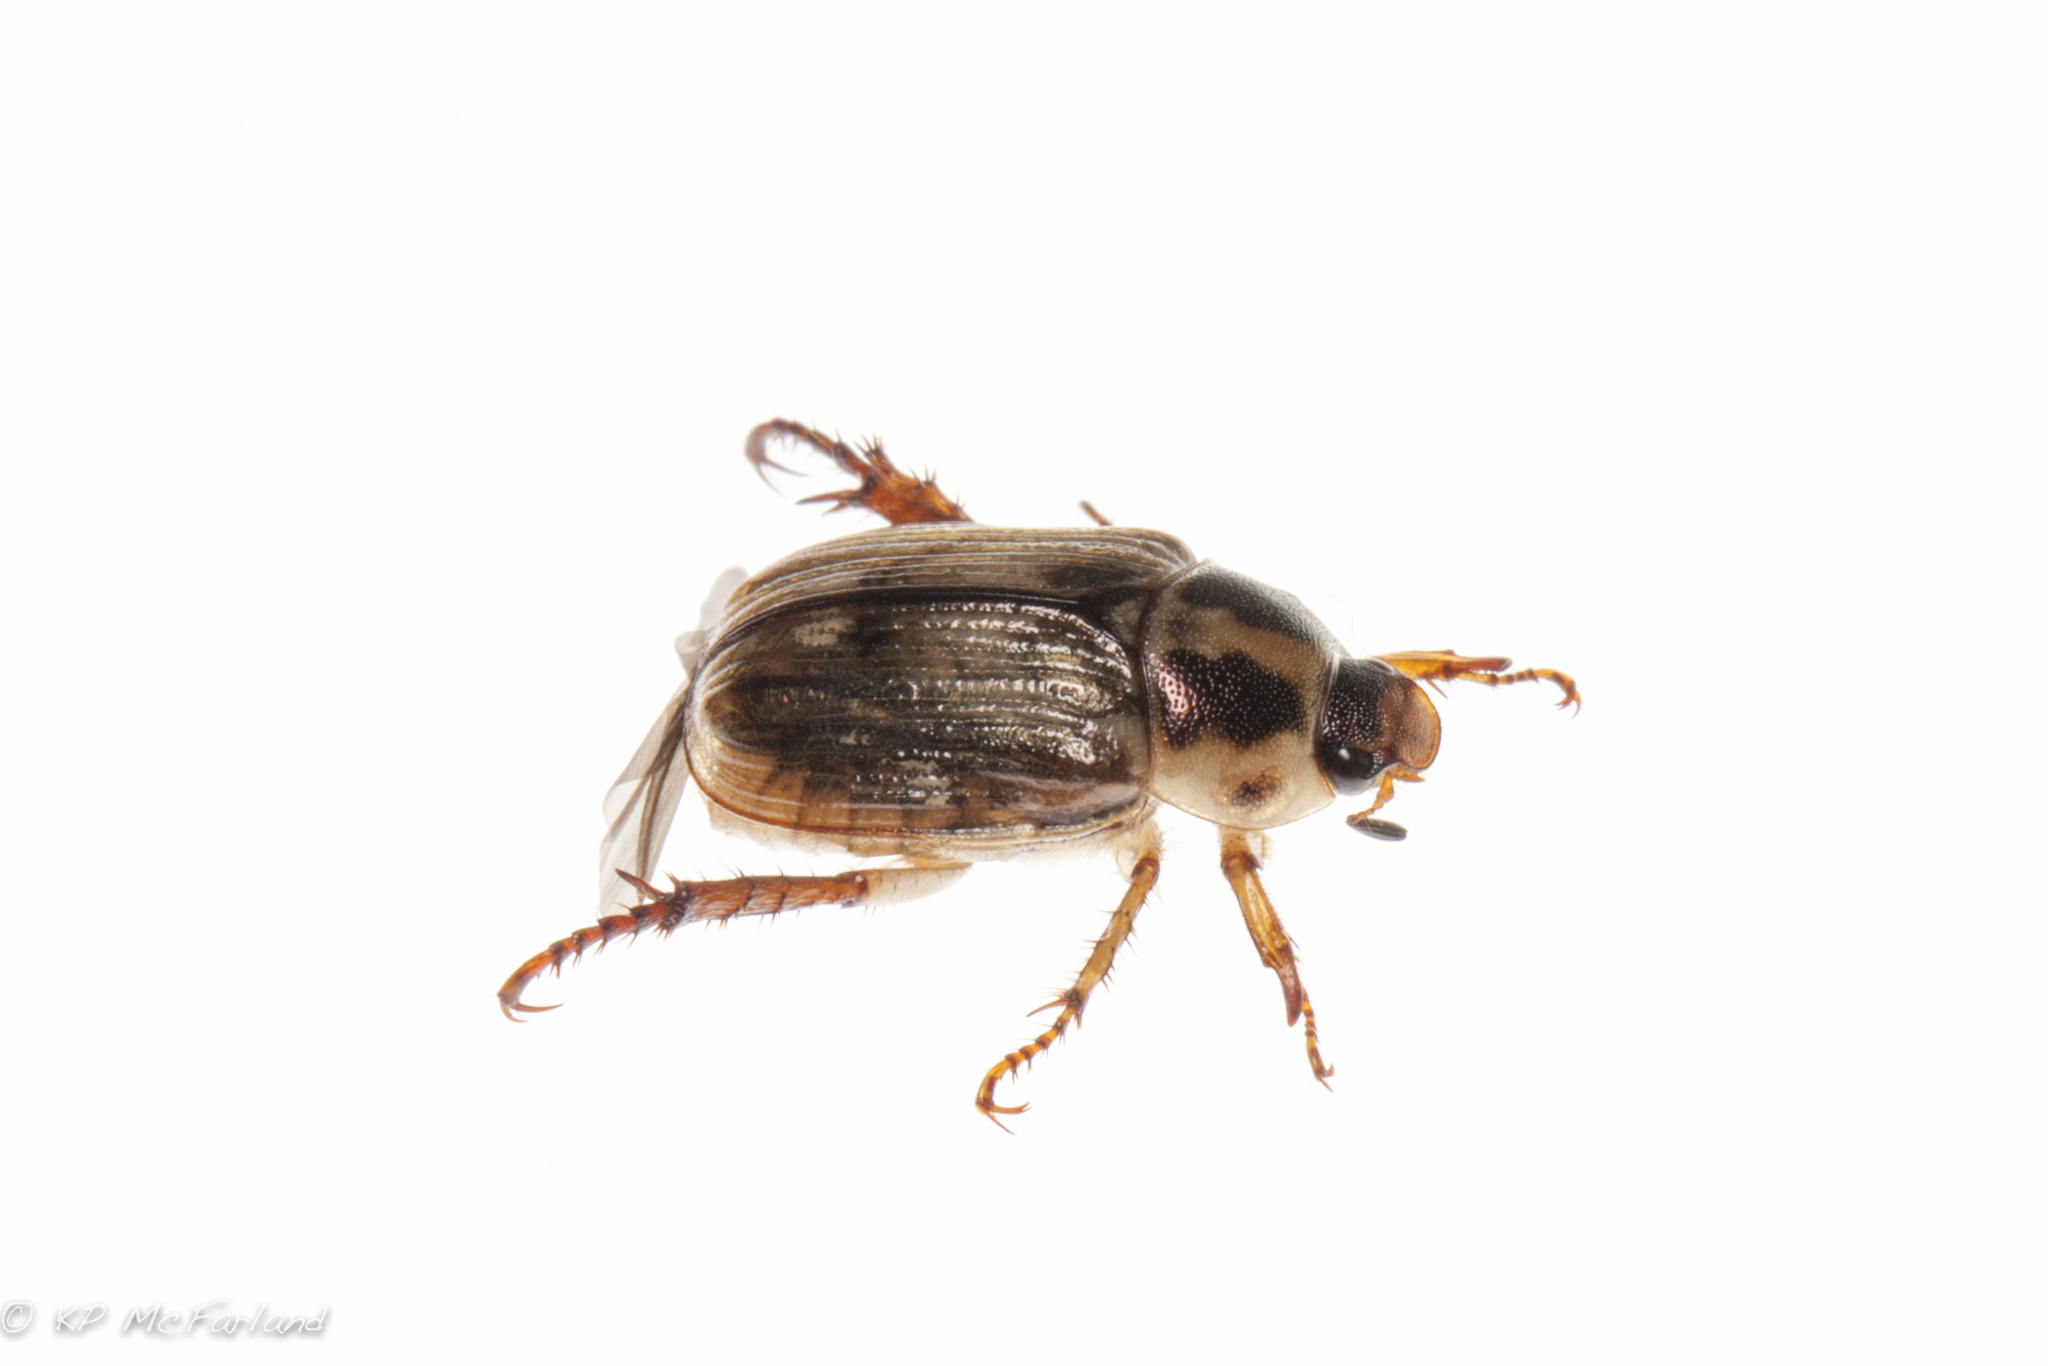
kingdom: Animalia
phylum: Arthropoda
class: Insecta
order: Coleoptera
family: Scarabaeidae
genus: Exomala
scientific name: Exomala orientalis
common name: Oriental beetle
